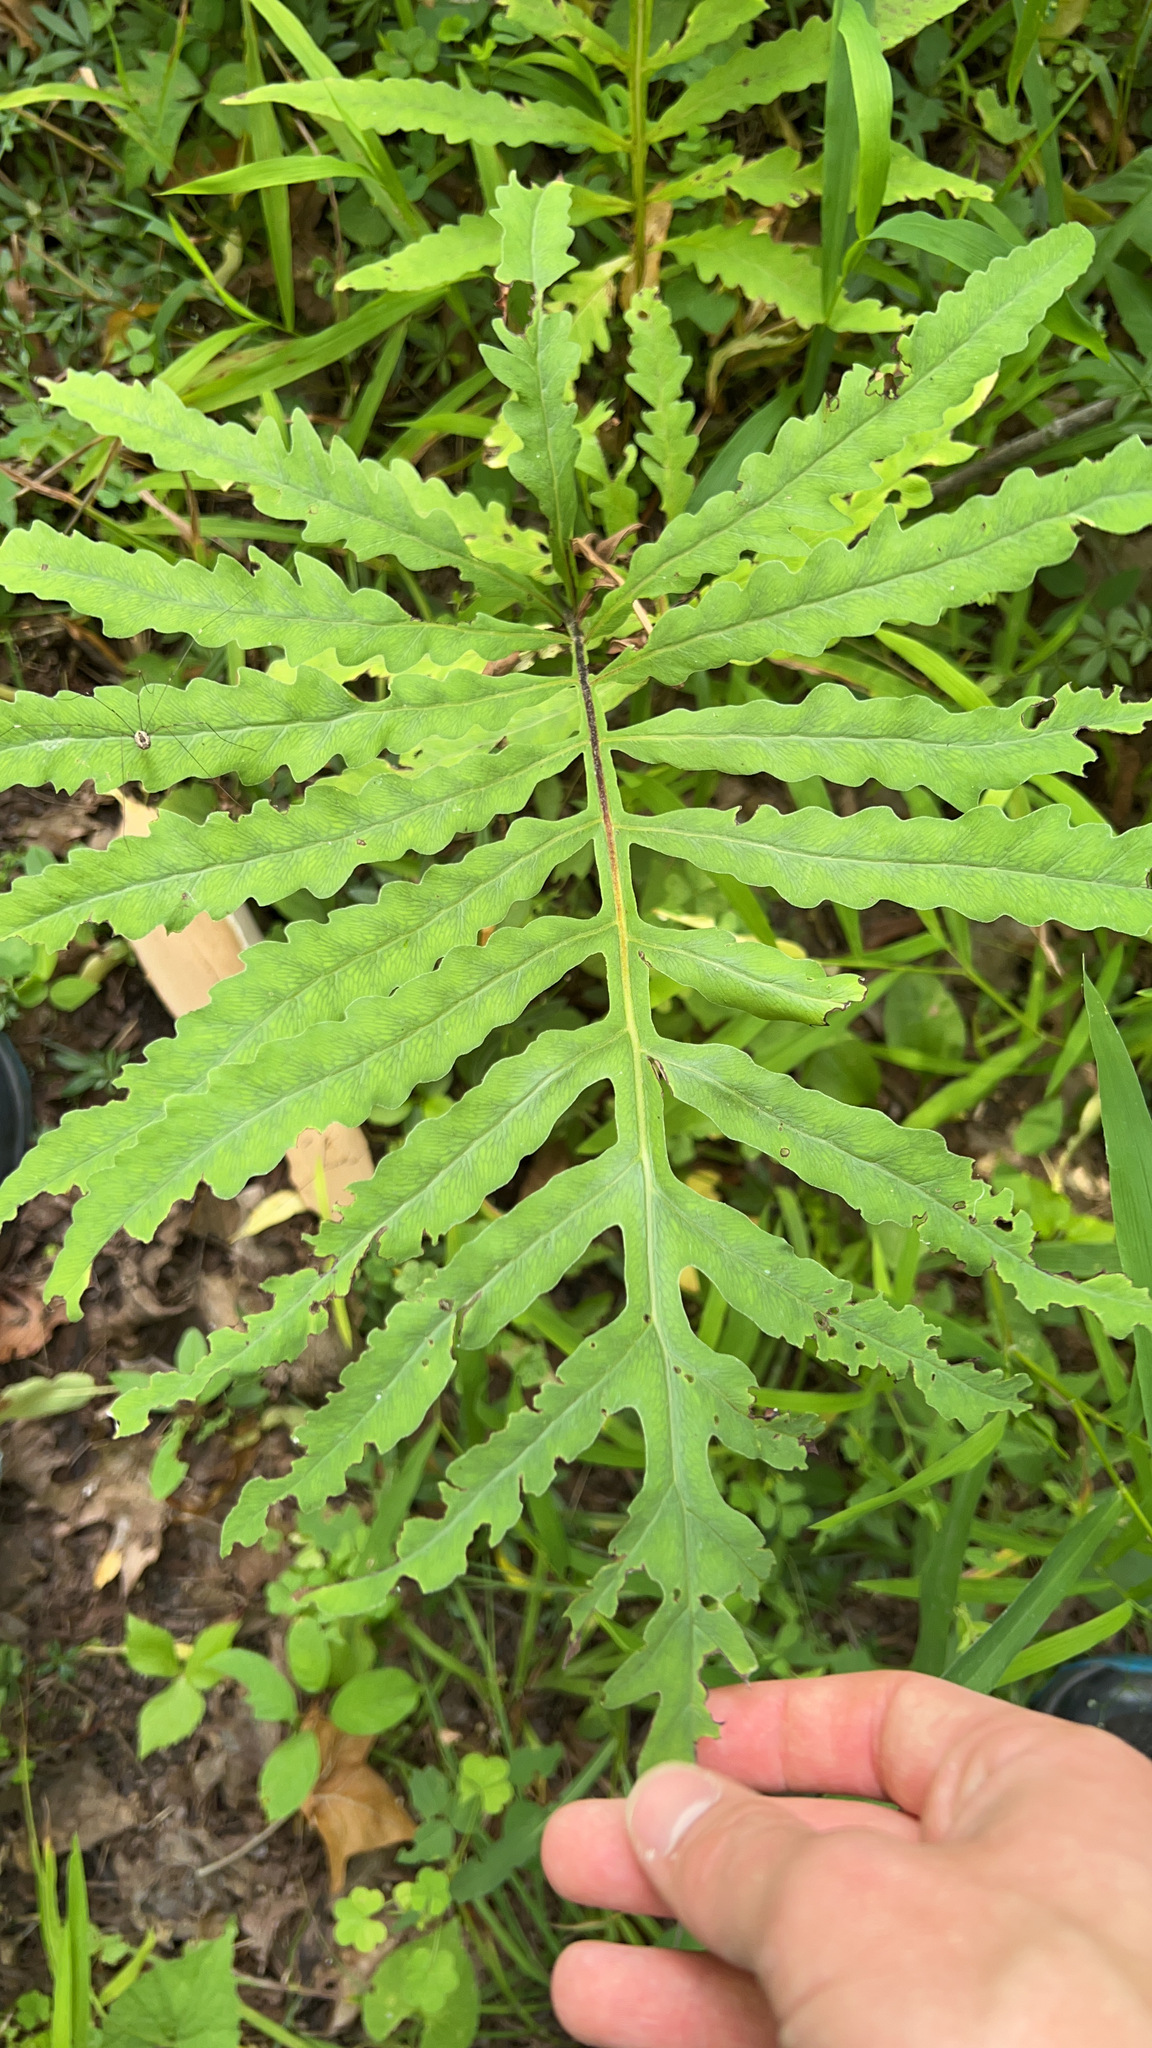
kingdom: Plantae
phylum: Tracheophyta
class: Polypodiopsida
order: Polypodiales
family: Onocleaceae
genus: Onoclea
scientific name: Onoclea sensibilis
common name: Sensitive fern
